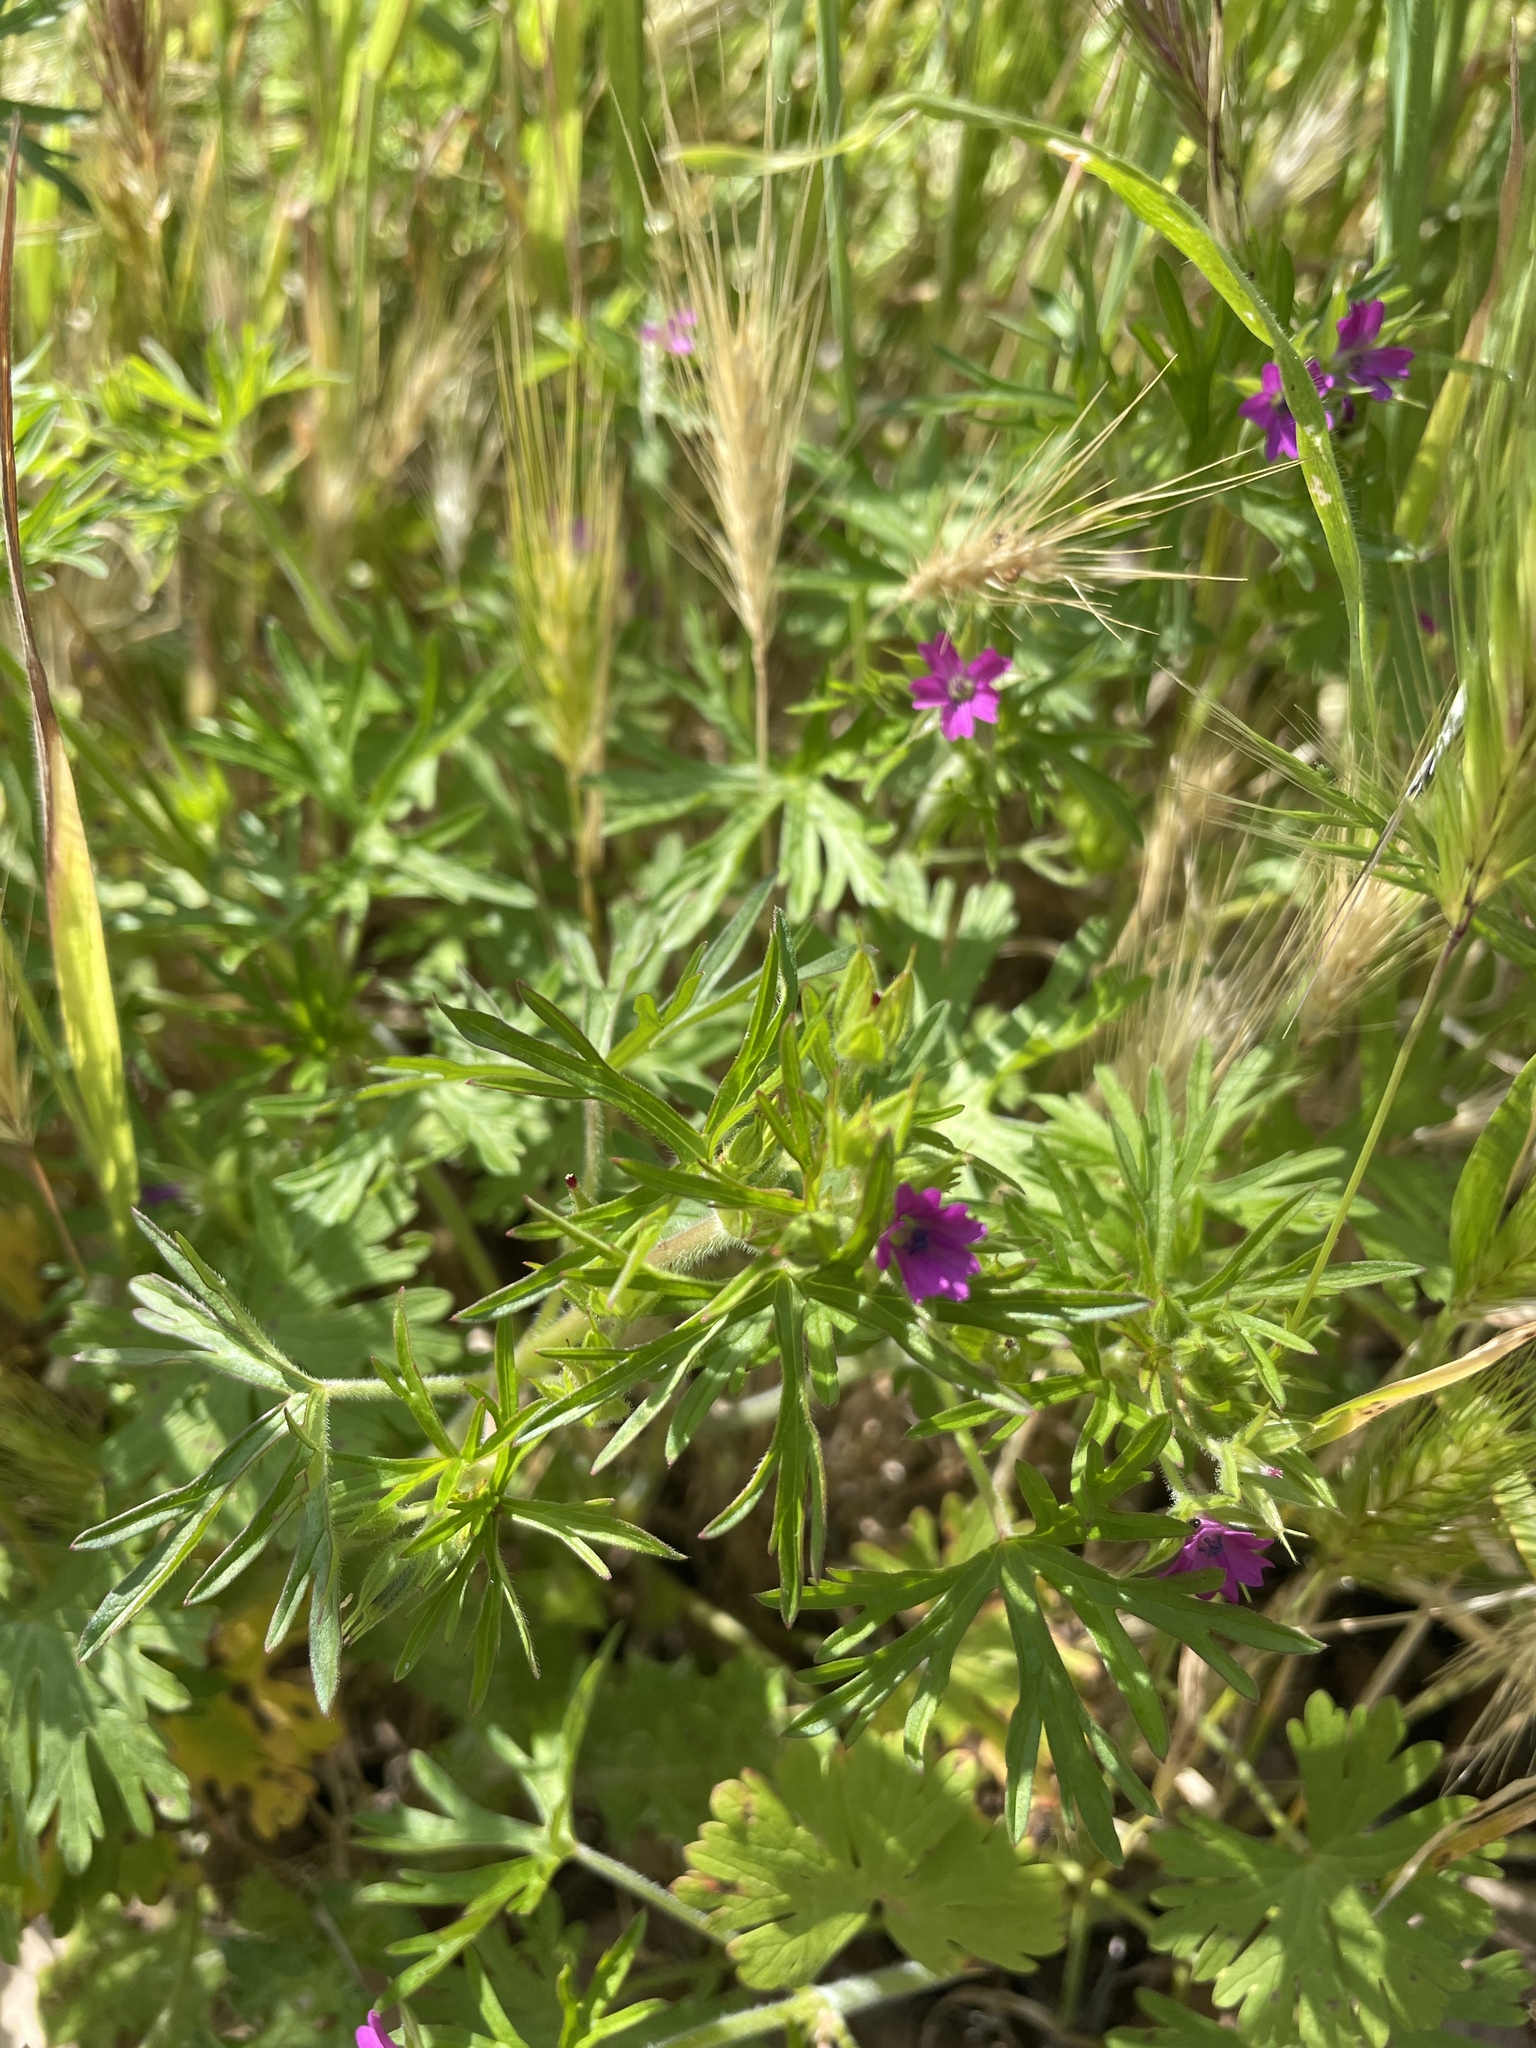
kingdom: Plantae
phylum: Tracheophyta
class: Magnoliopsida
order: Geraniales
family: Geraniaceae
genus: Geranium
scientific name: Geranium dissectum
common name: Cut-leaved crane's-bill
